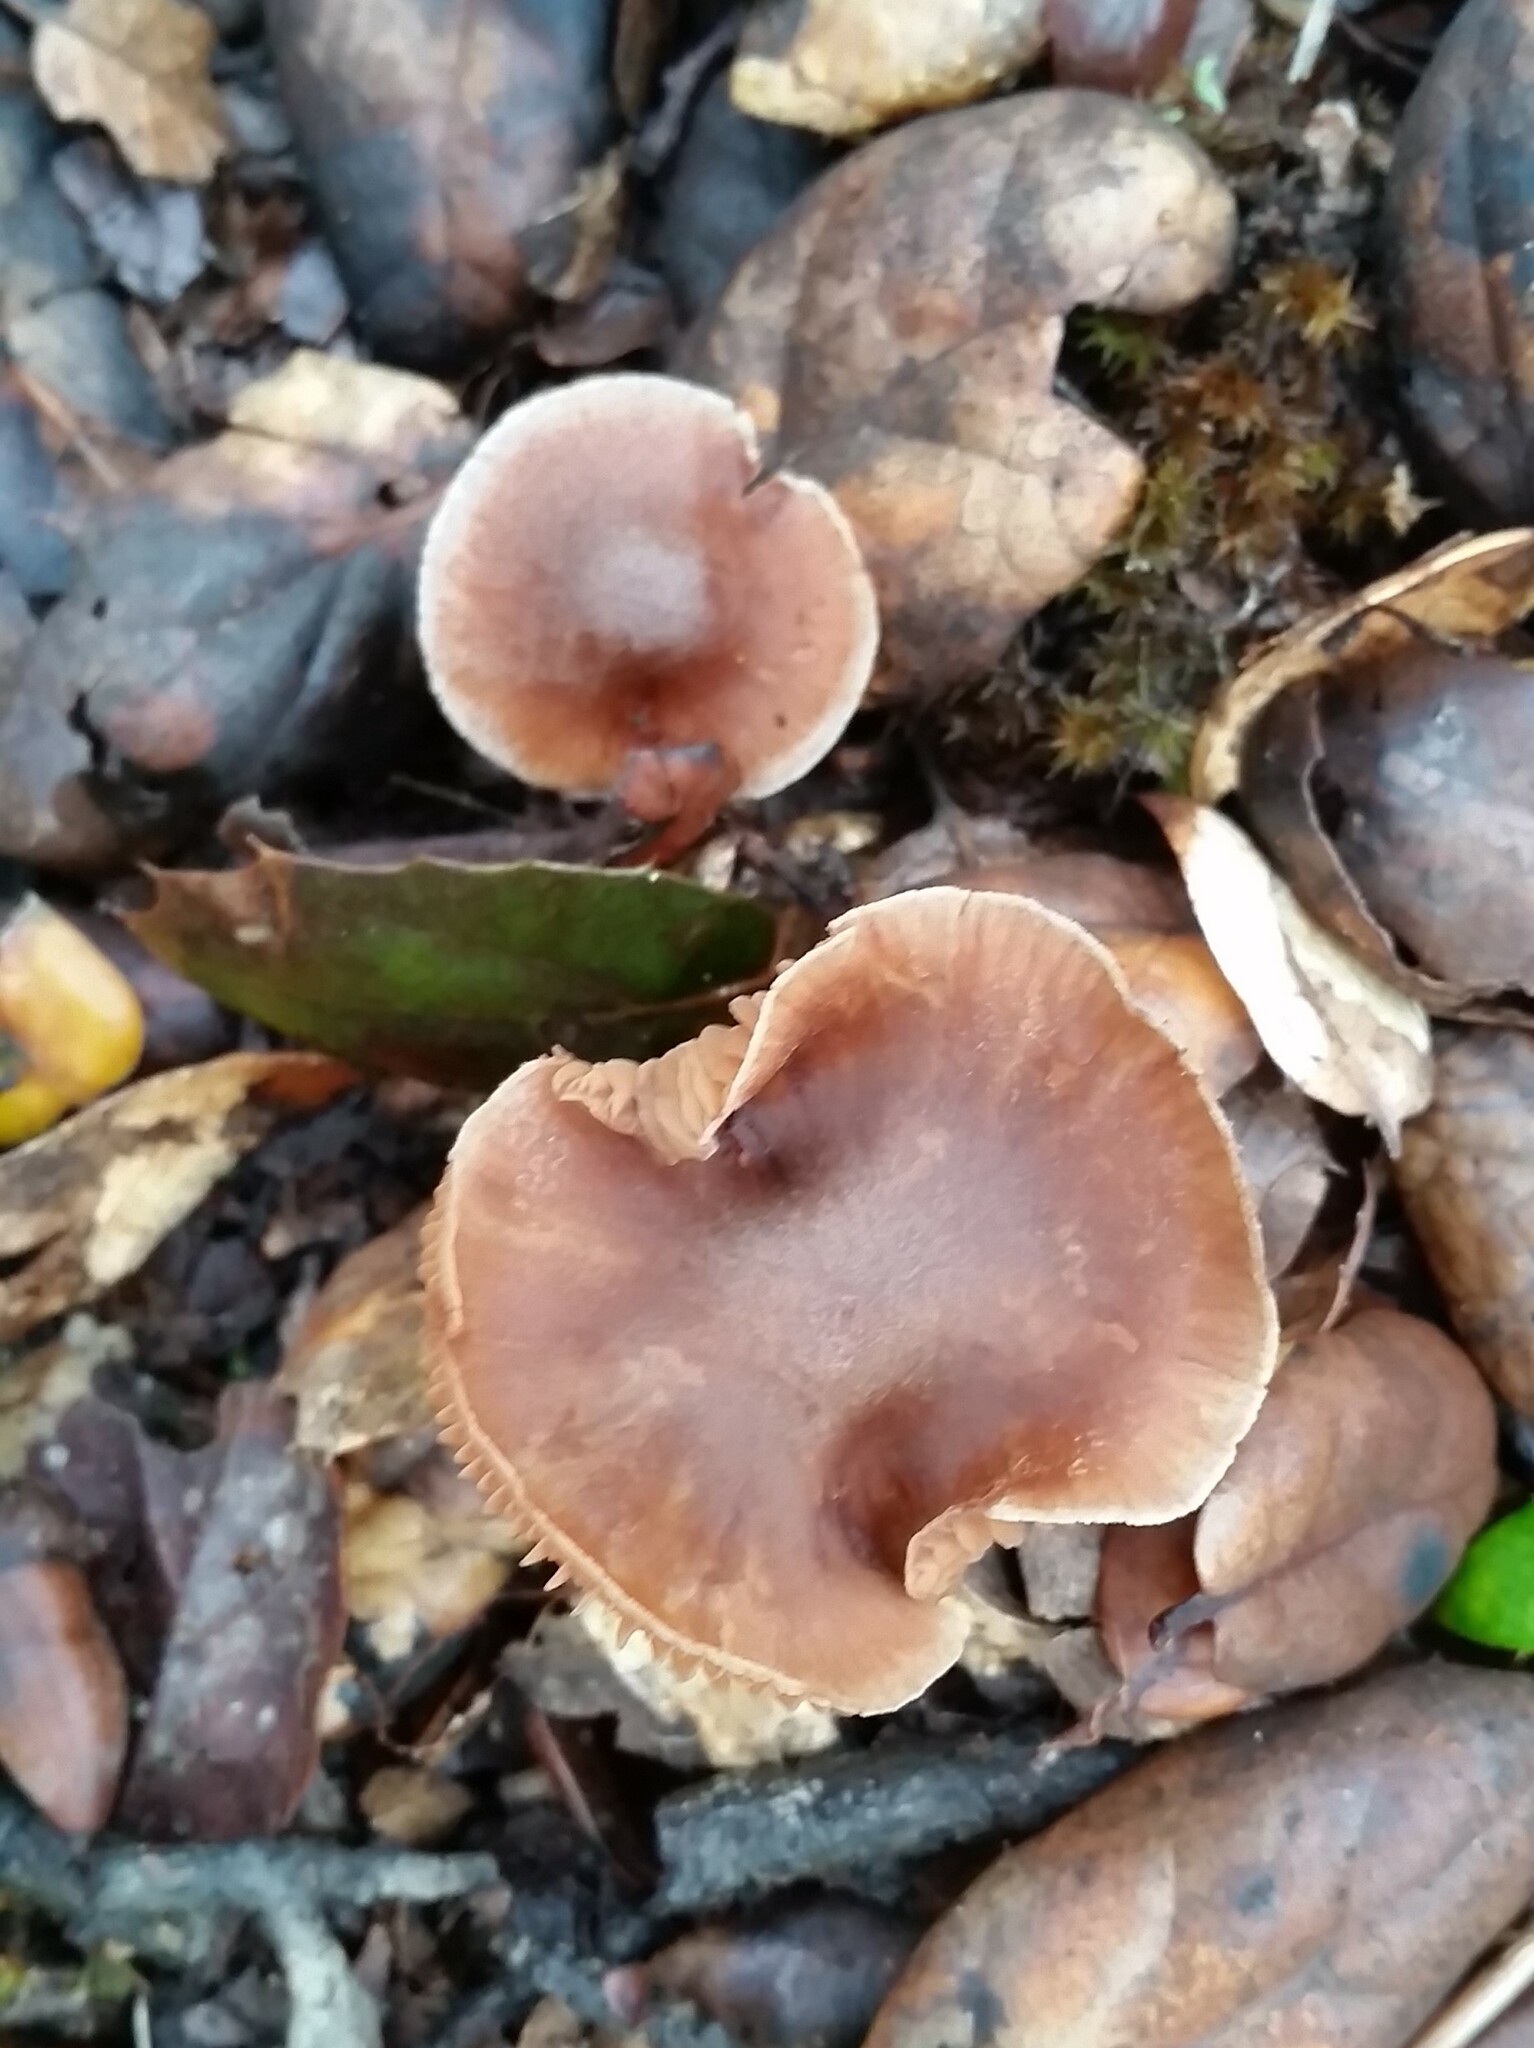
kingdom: Fungi
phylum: Basidiomycota
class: Agaricomycetes
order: Agaricales
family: Cortinariaceae
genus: Cortinarius
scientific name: Cortinarius ohlone
